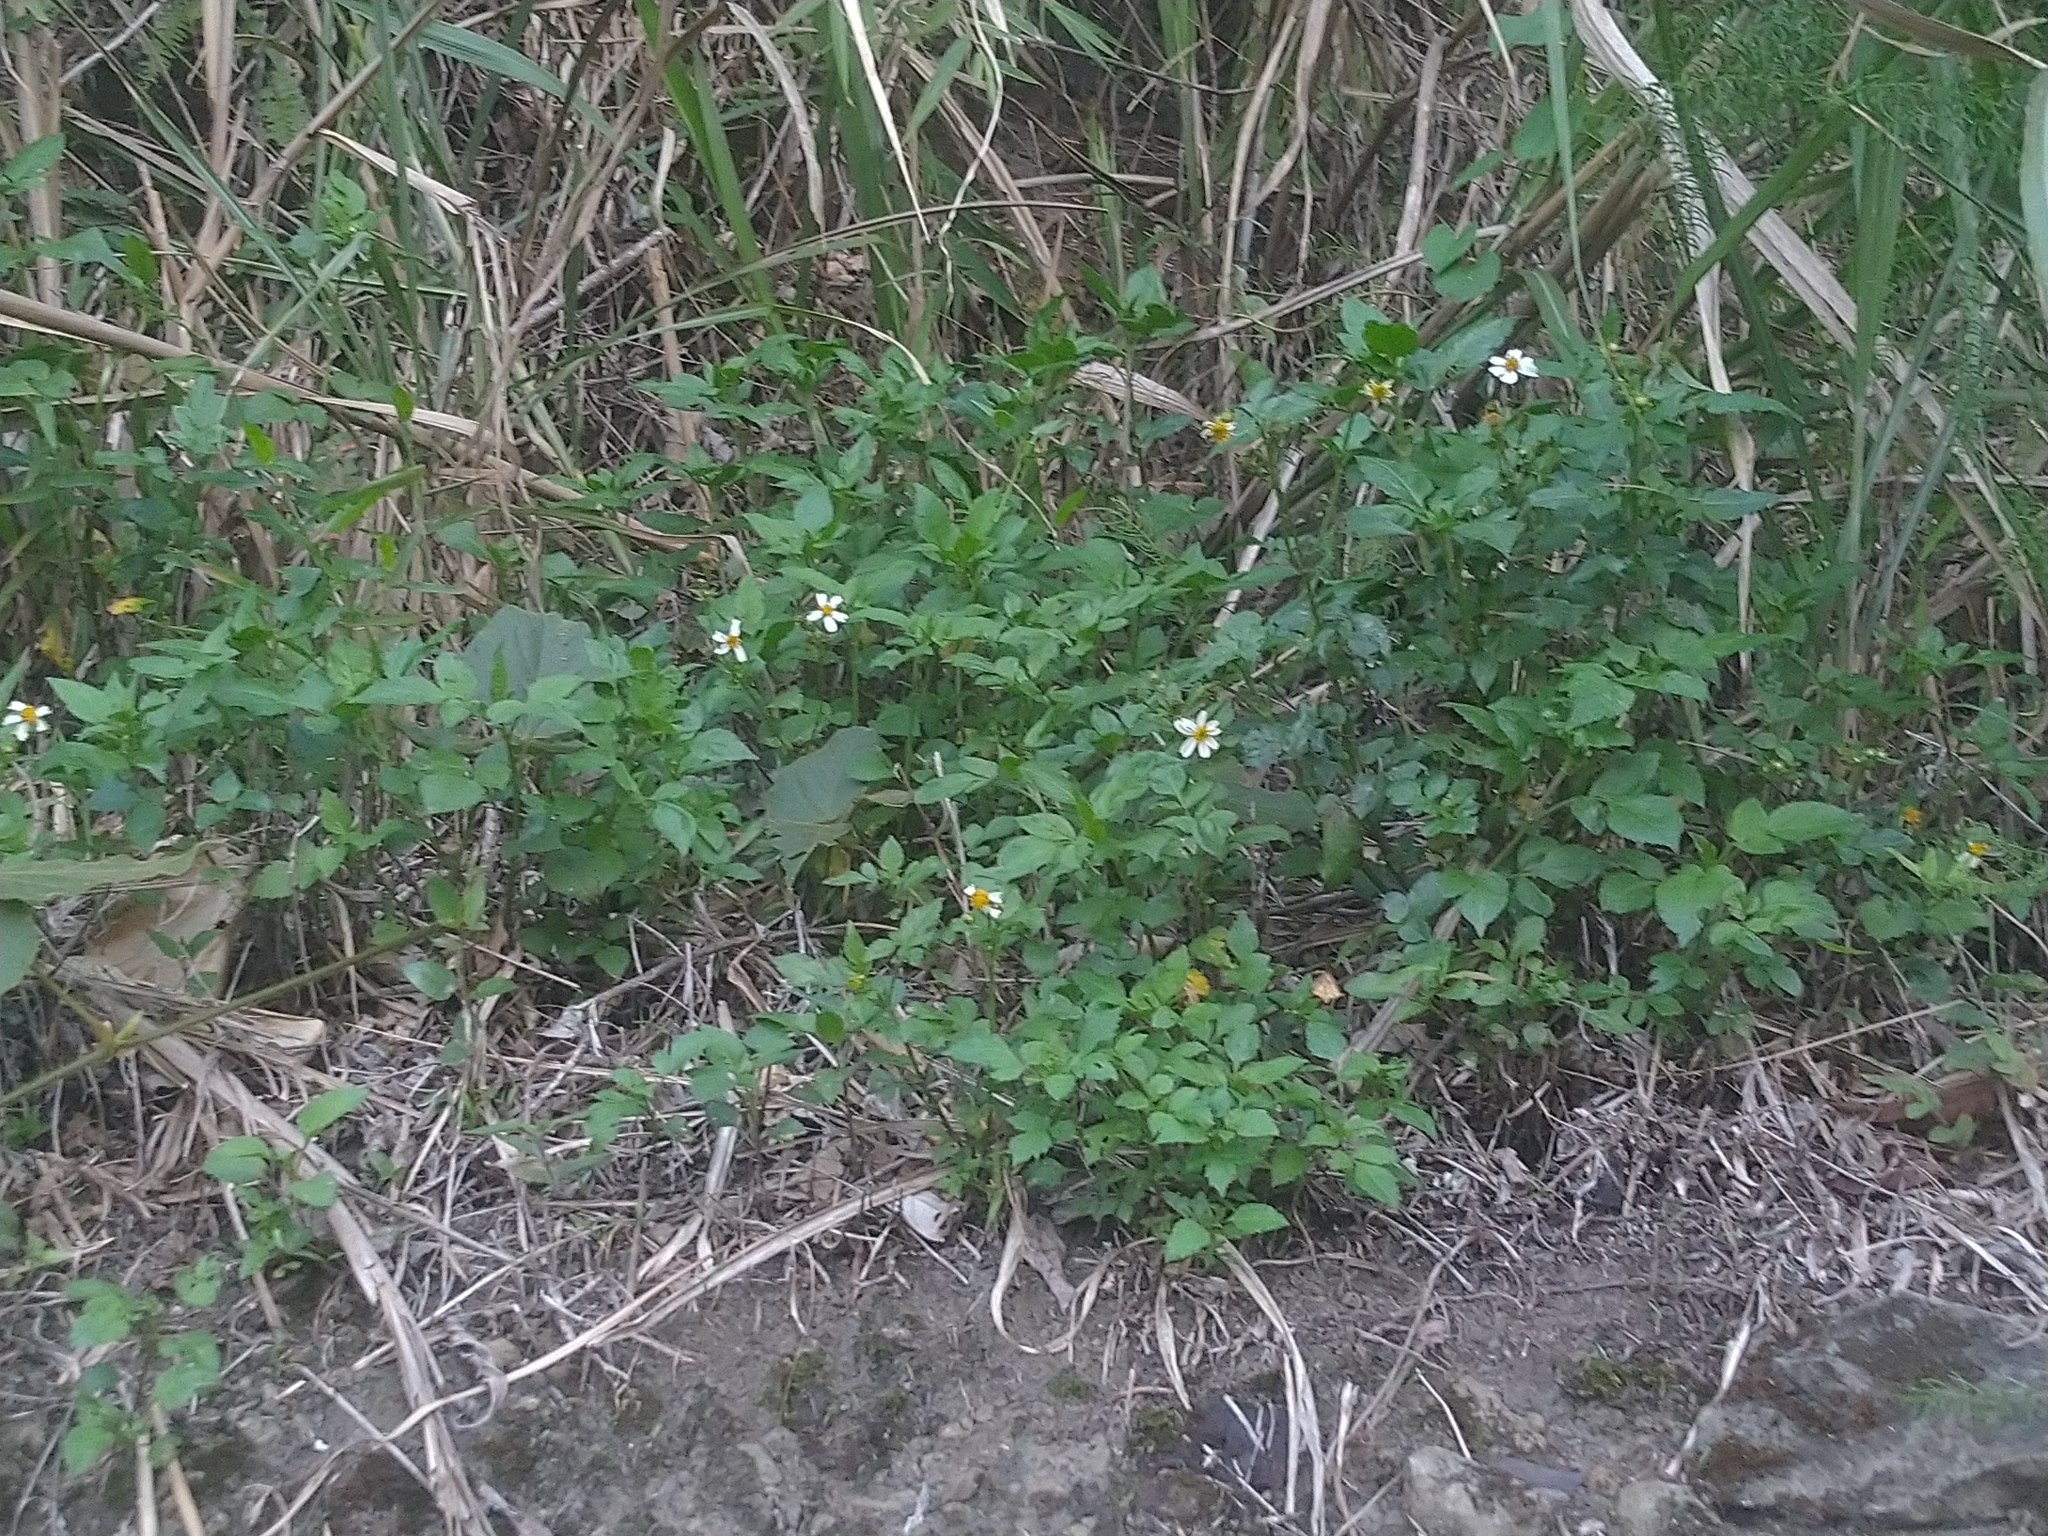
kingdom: Plantae
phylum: Tracheophyta
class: Magnoliopsida
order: Asterales
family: Asteraceae
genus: Bidens
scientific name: Bidens alba
